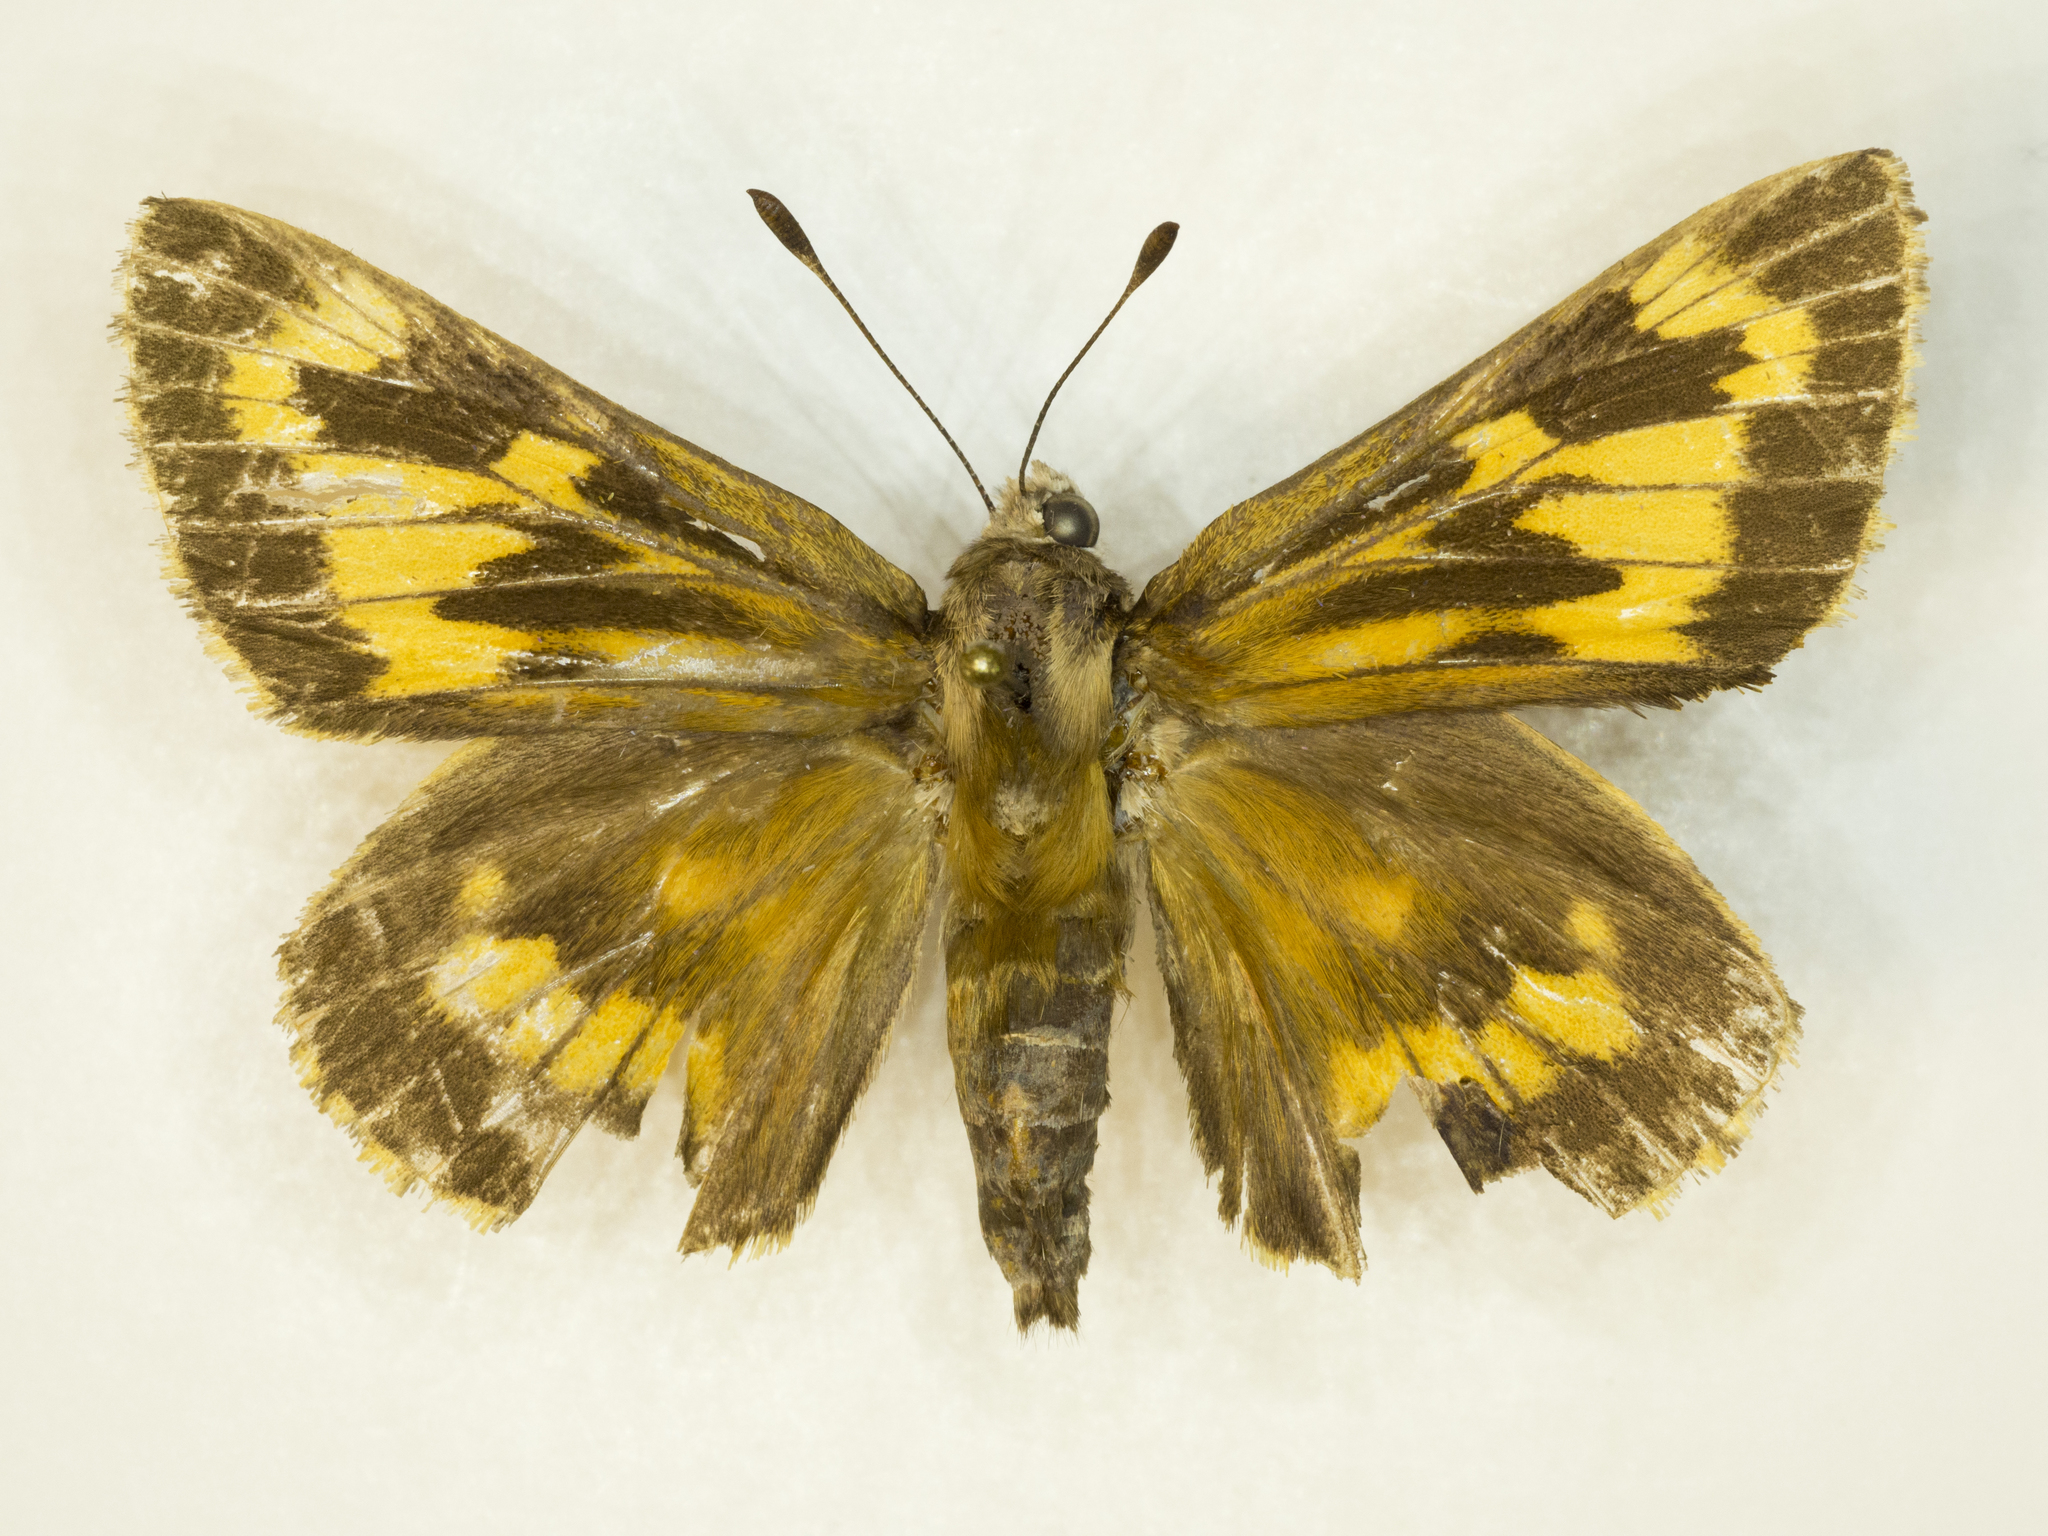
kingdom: Animalia
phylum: Arthropoda
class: Insecta
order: Lepidoptera
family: Hesperiidae
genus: Agathymus
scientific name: Agathymus alliae
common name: Mojave giant-skipper
